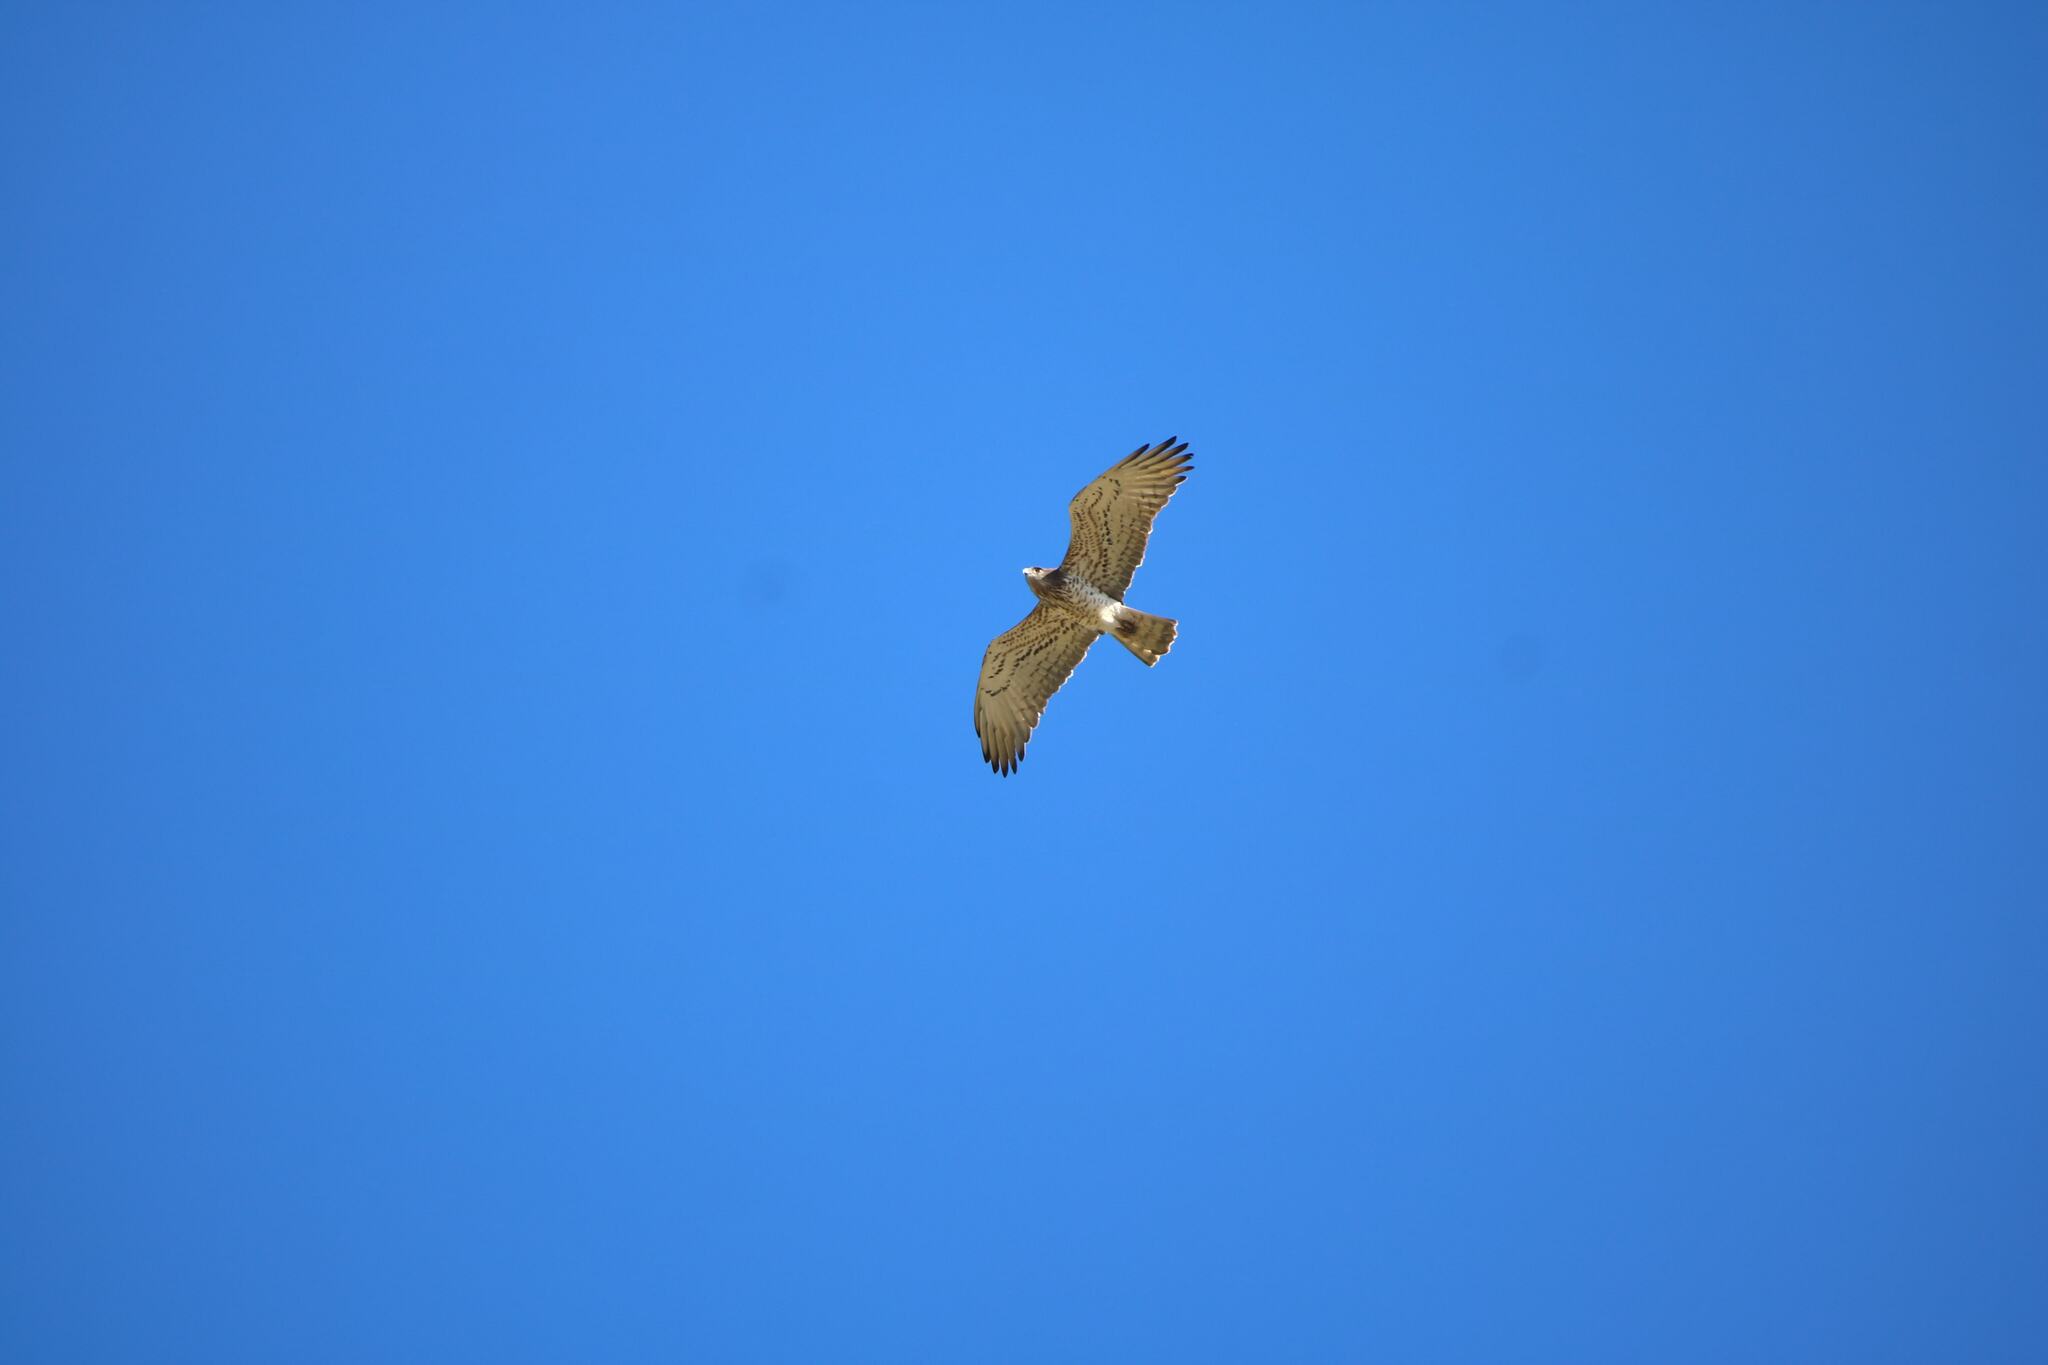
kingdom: Animalia
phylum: Chordata
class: Aves
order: Accipitriformes
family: Accipitridae
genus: Circaetus
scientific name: Circaetus gallicus
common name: Short-toed snake eagle
